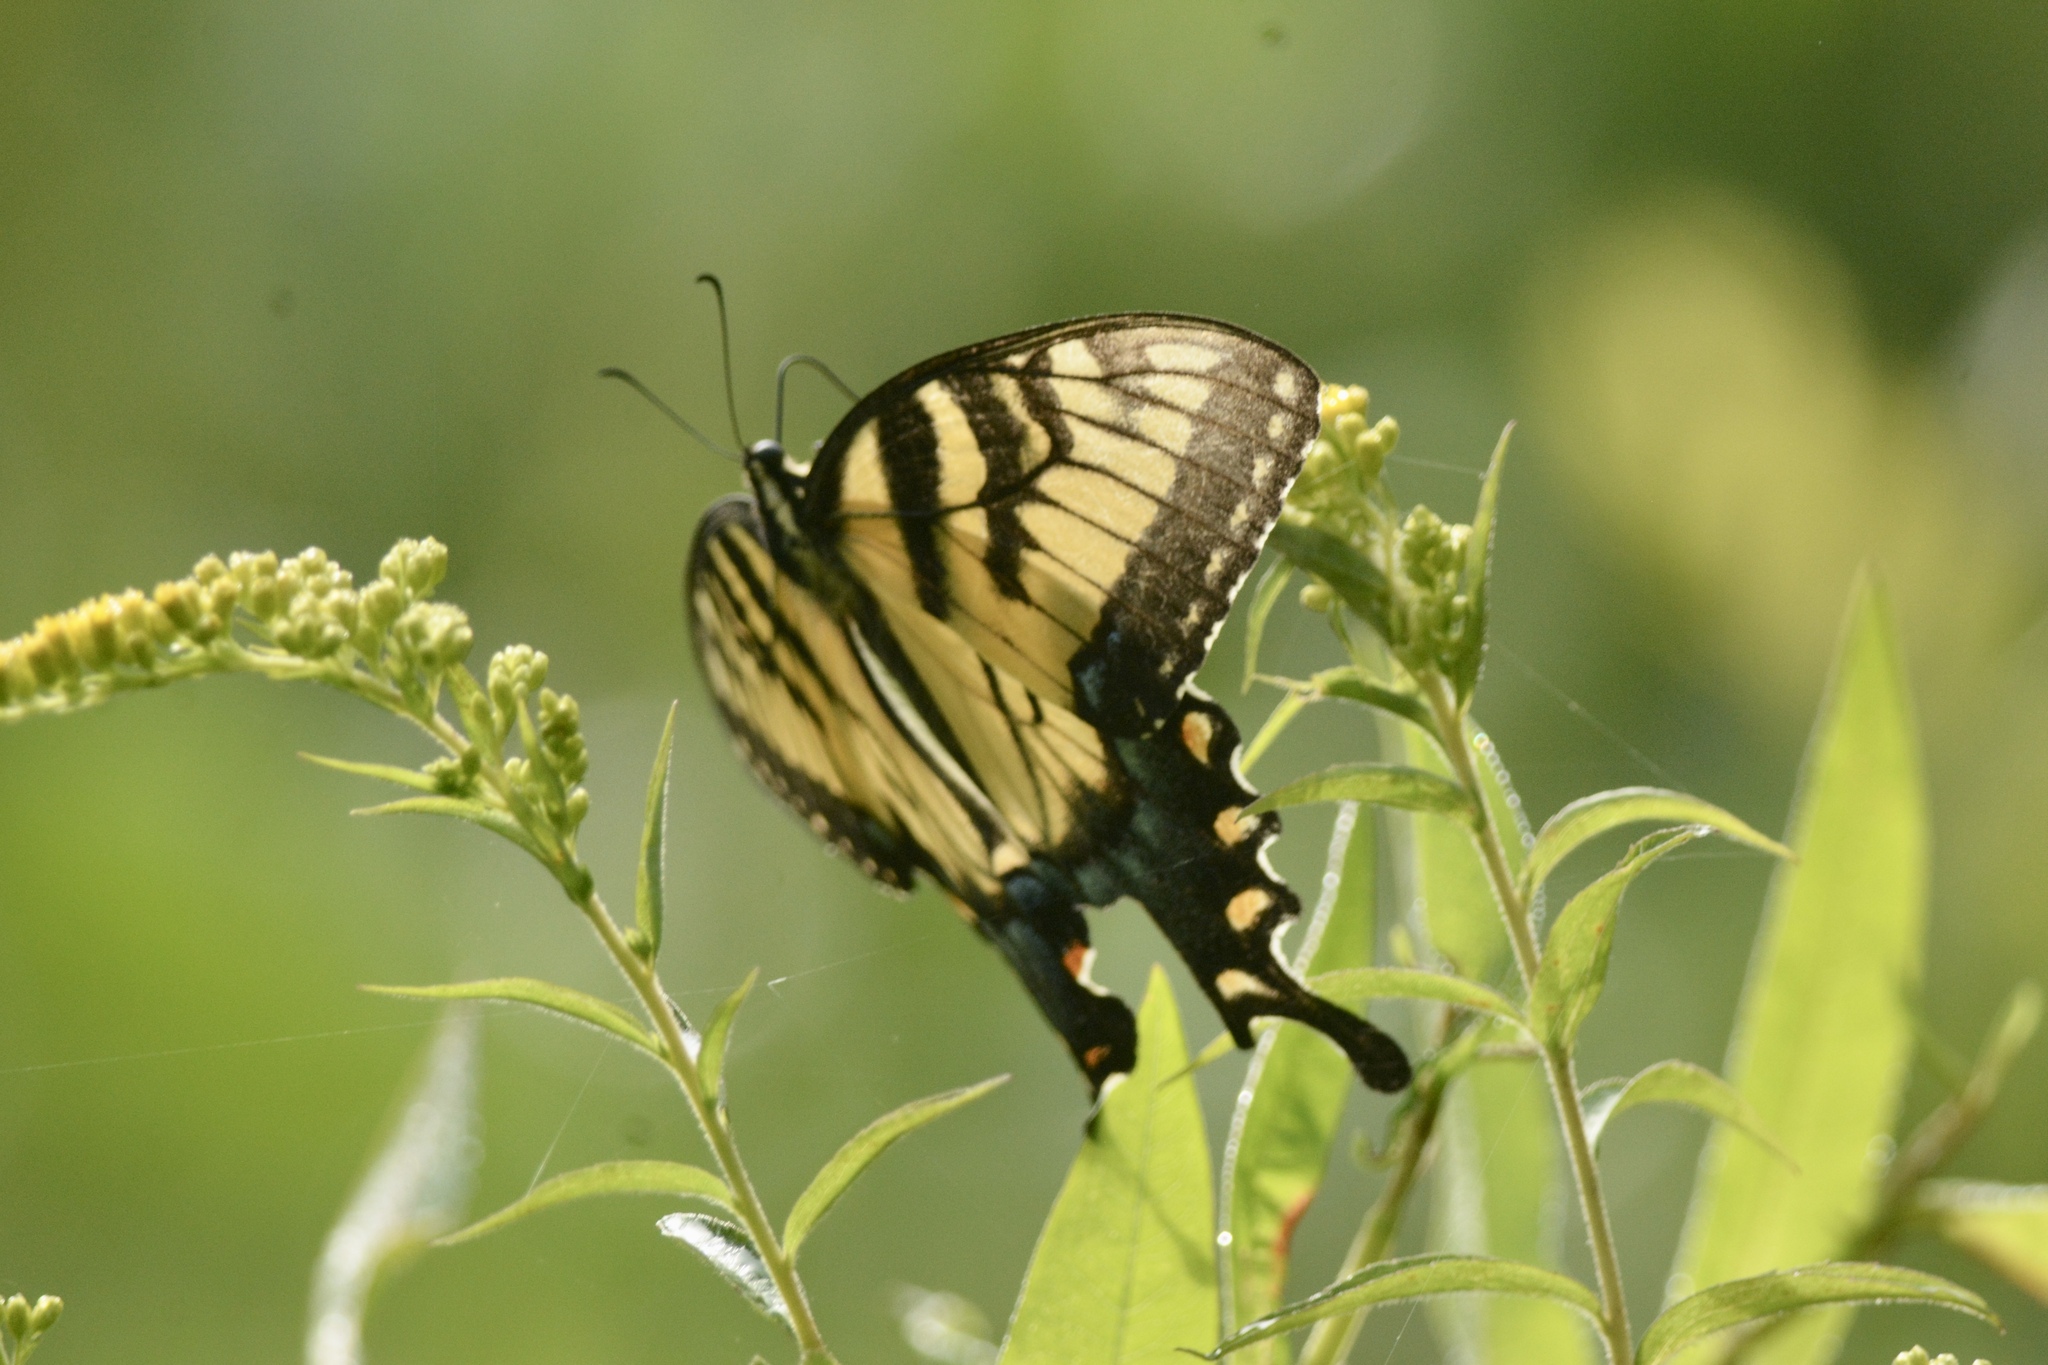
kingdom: Animalia
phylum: Arthropoda
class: Insecta
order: Lepidoptera
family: Papilionidae
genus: Papilio
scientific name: Papilio glaucus
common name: Tiger swallowtail
